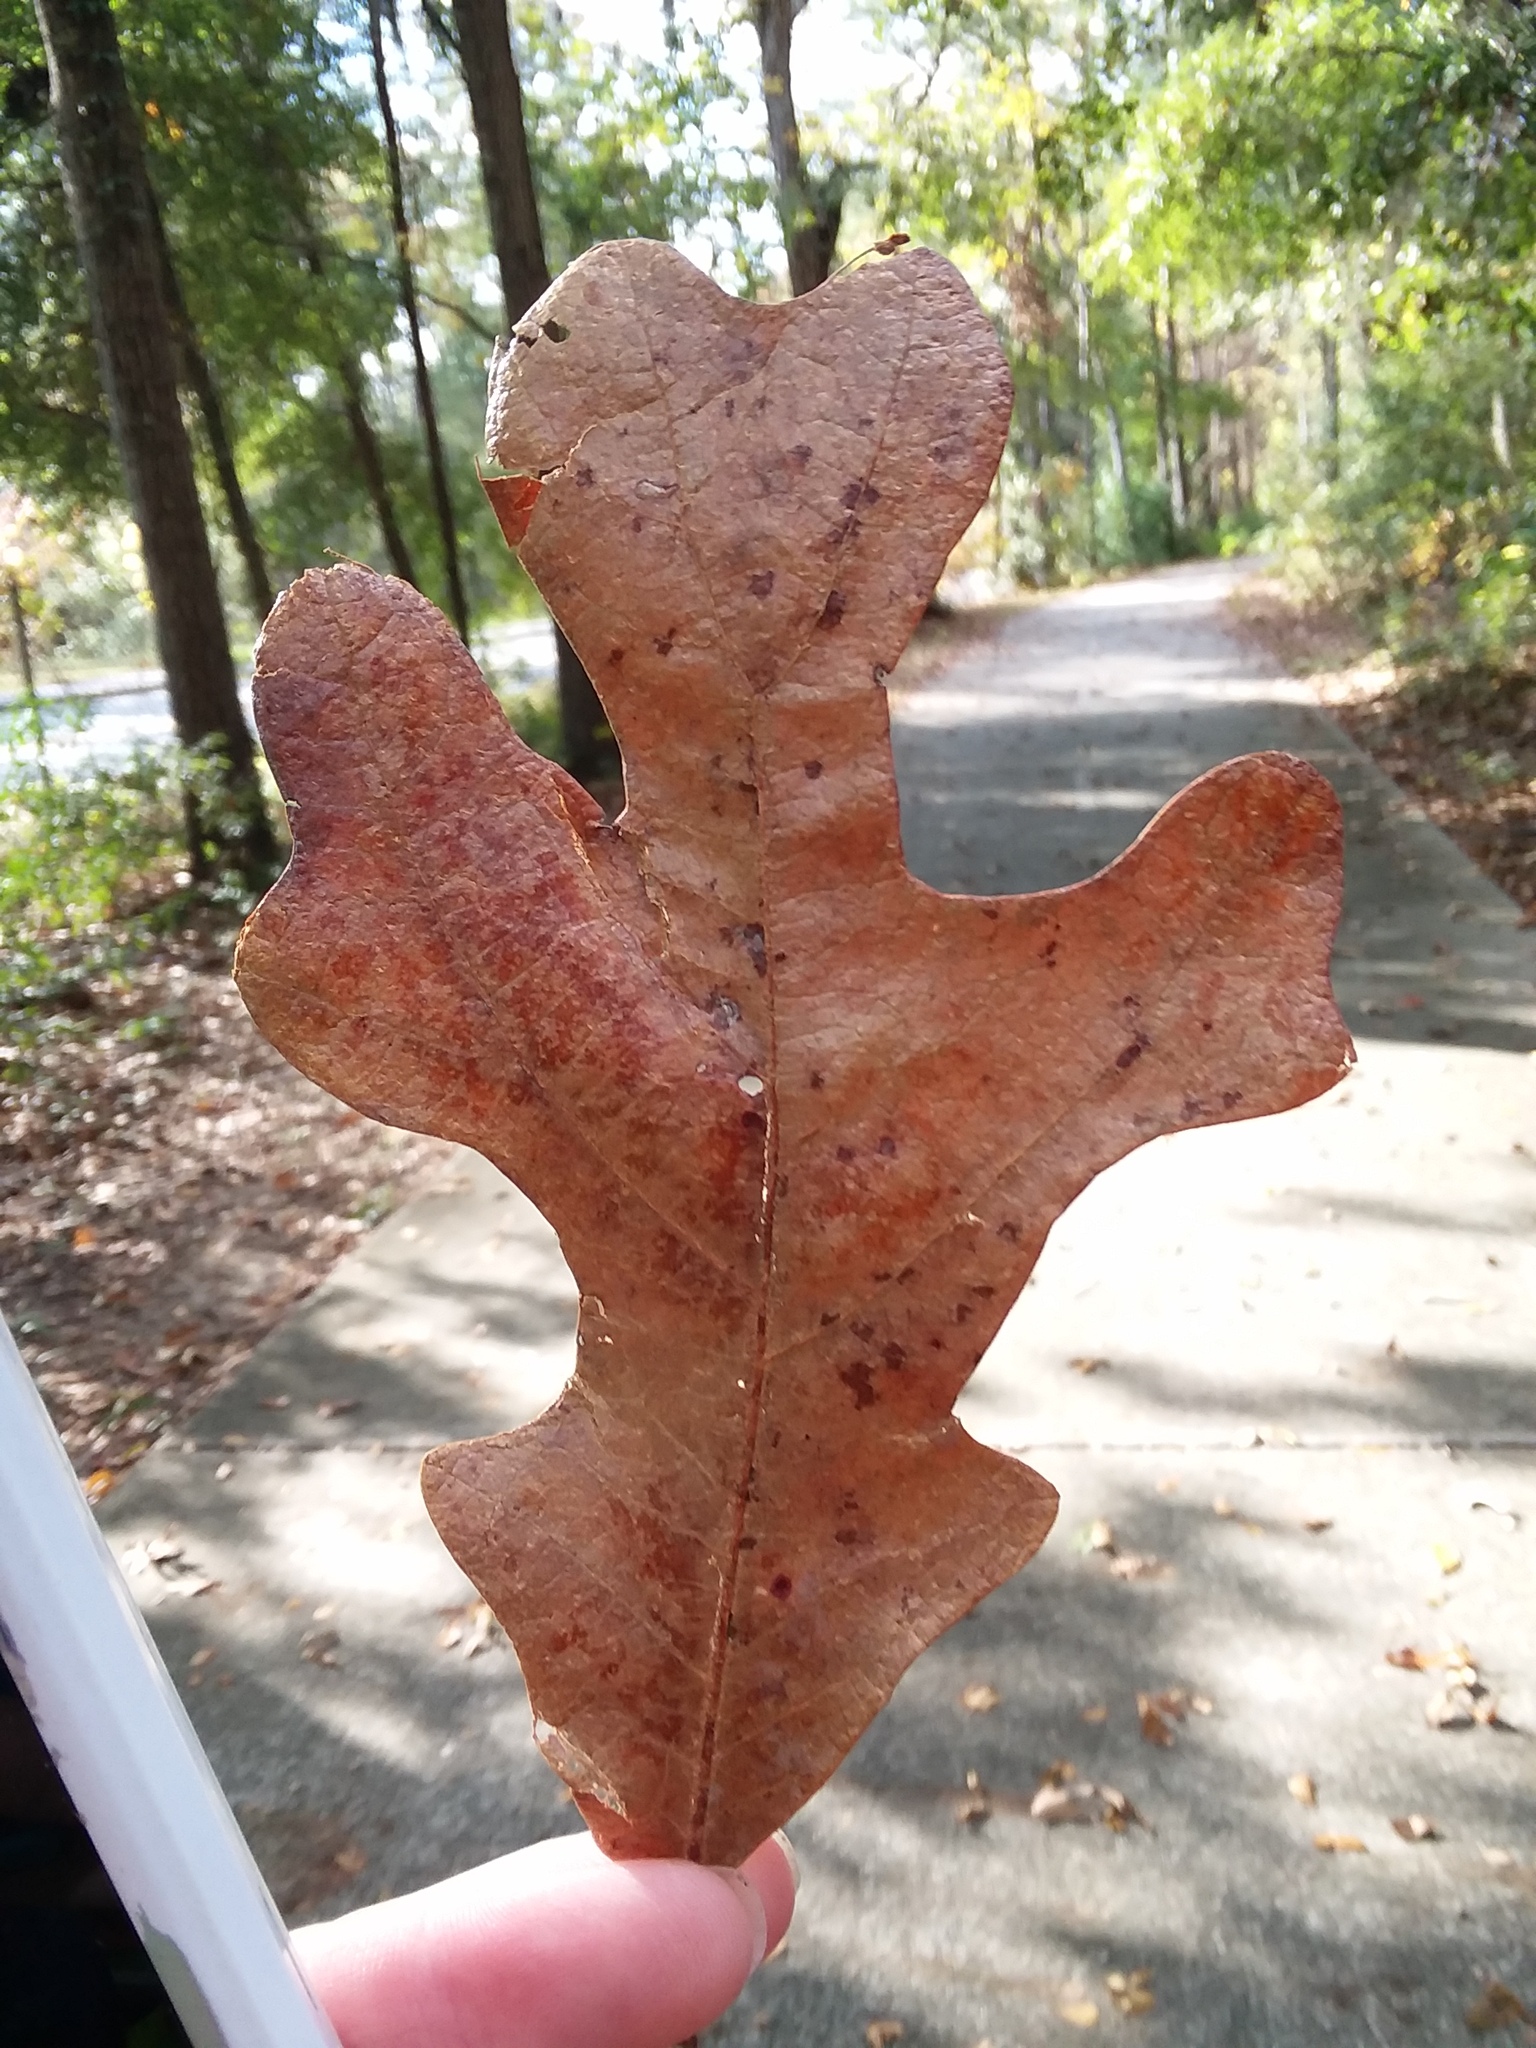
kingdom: Plantae
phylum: Tracheophyta
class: Magnoliopsida
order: Fagales
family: Fagaceae
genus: Quercus
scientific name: Quercus stellata
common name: Post oak
